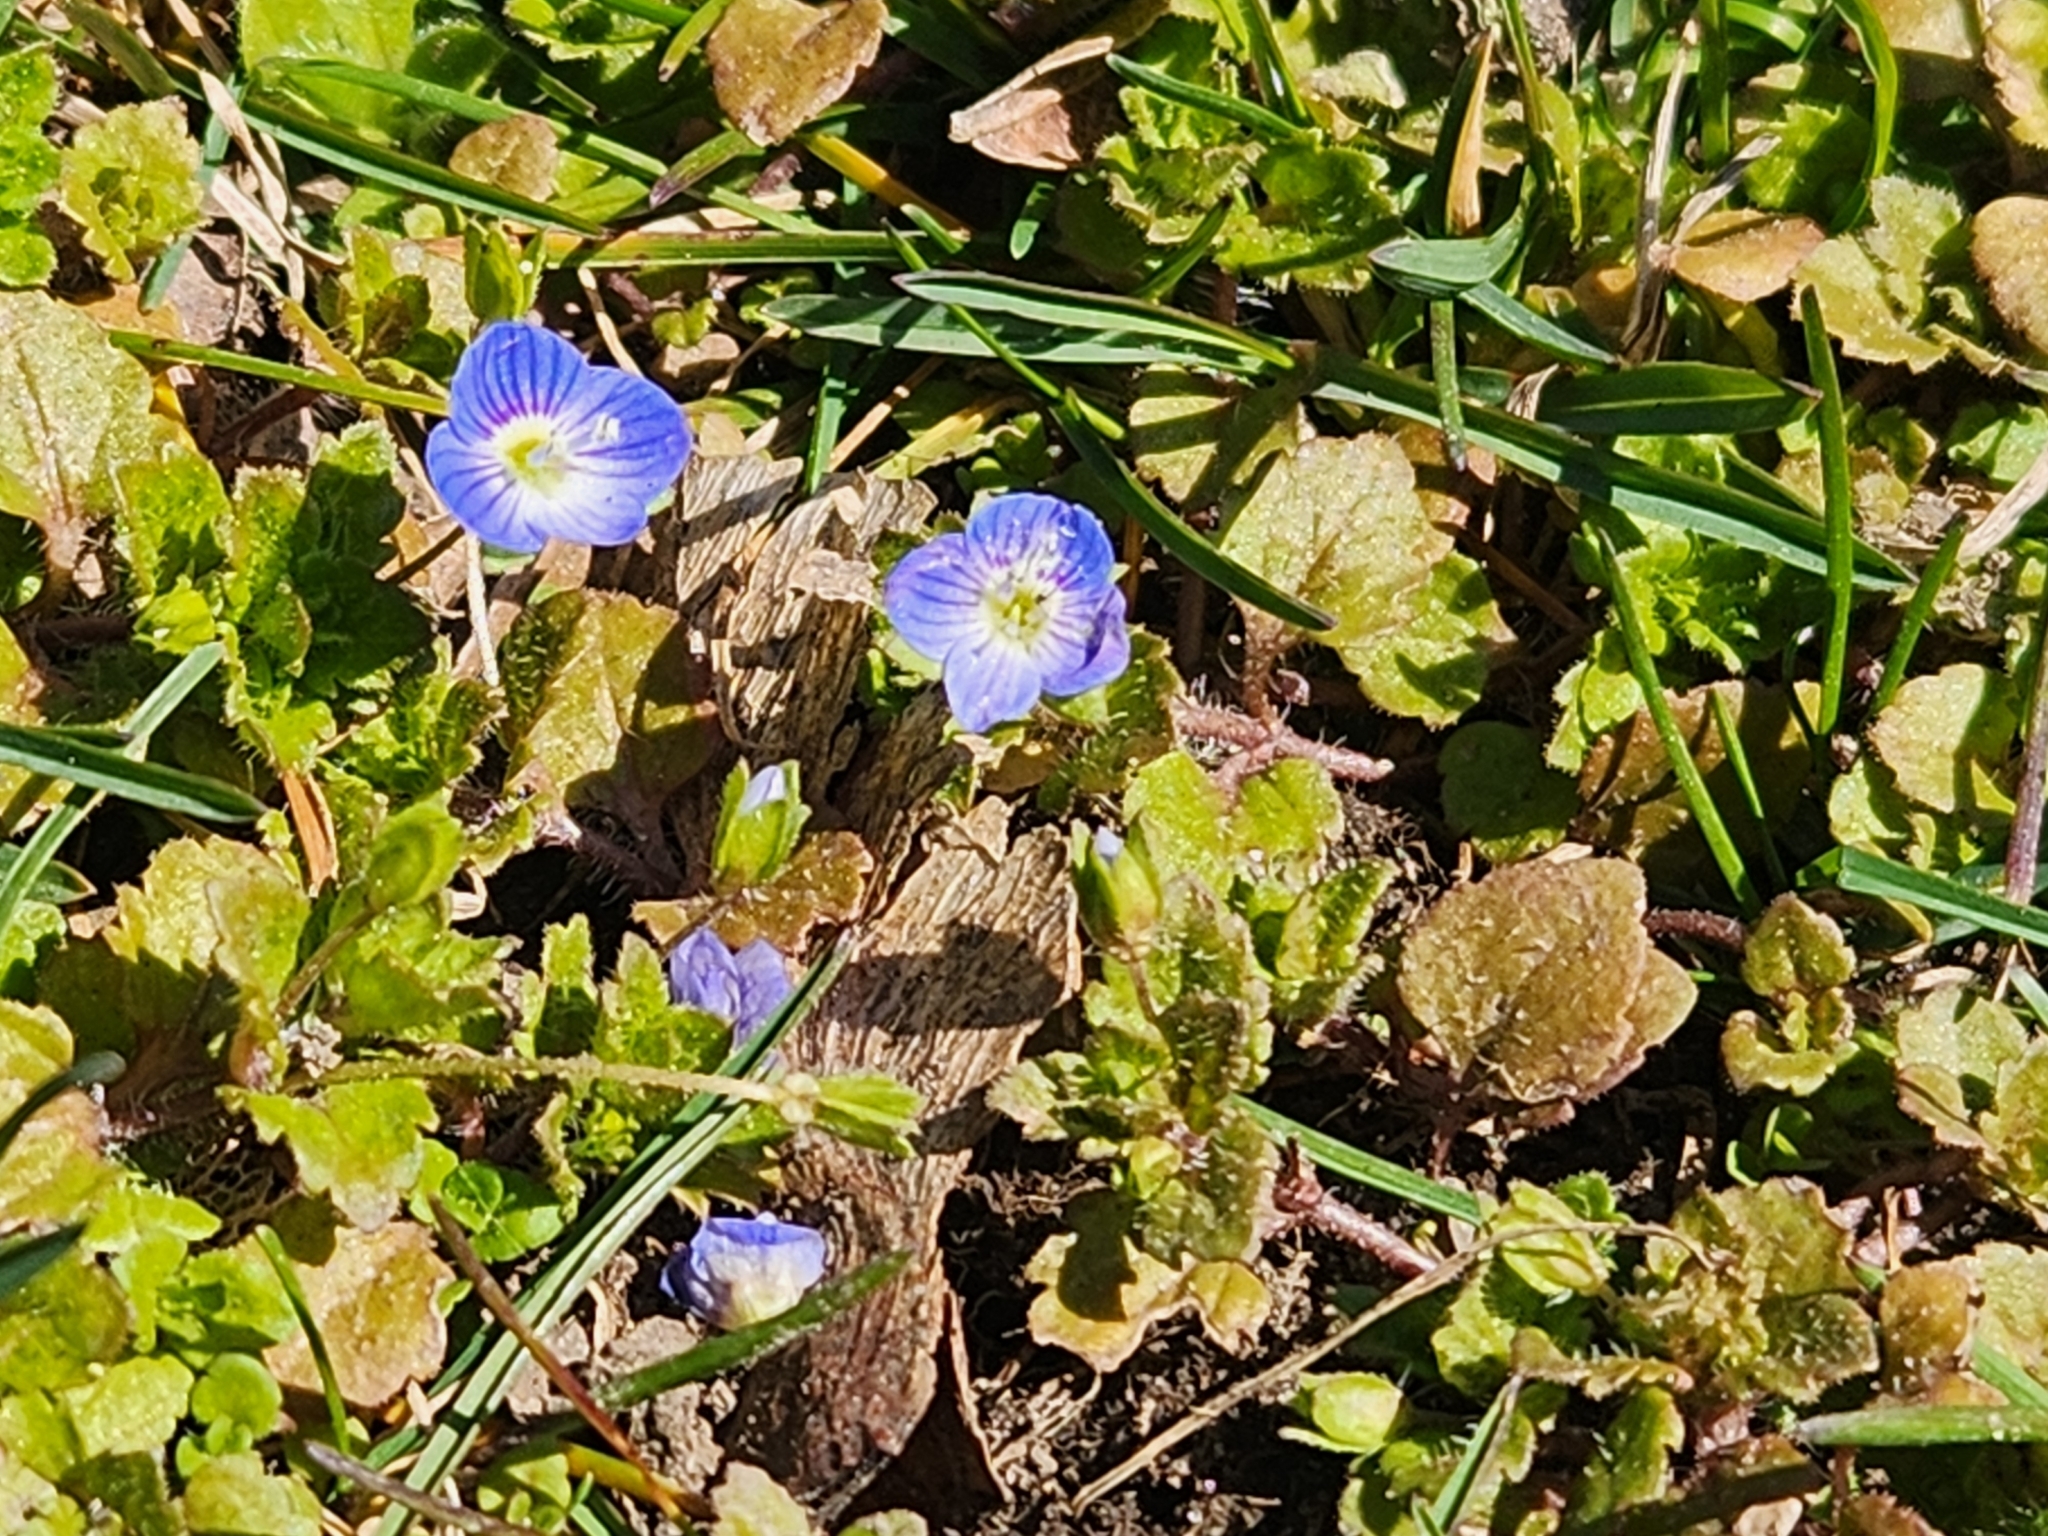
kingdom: Plantae
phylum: Tracheophyta
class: Magnoliopsida
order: Lamiales
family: Plantaginaceae
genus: Veronica
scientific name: Veronica persica
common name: Common field-speedwell
